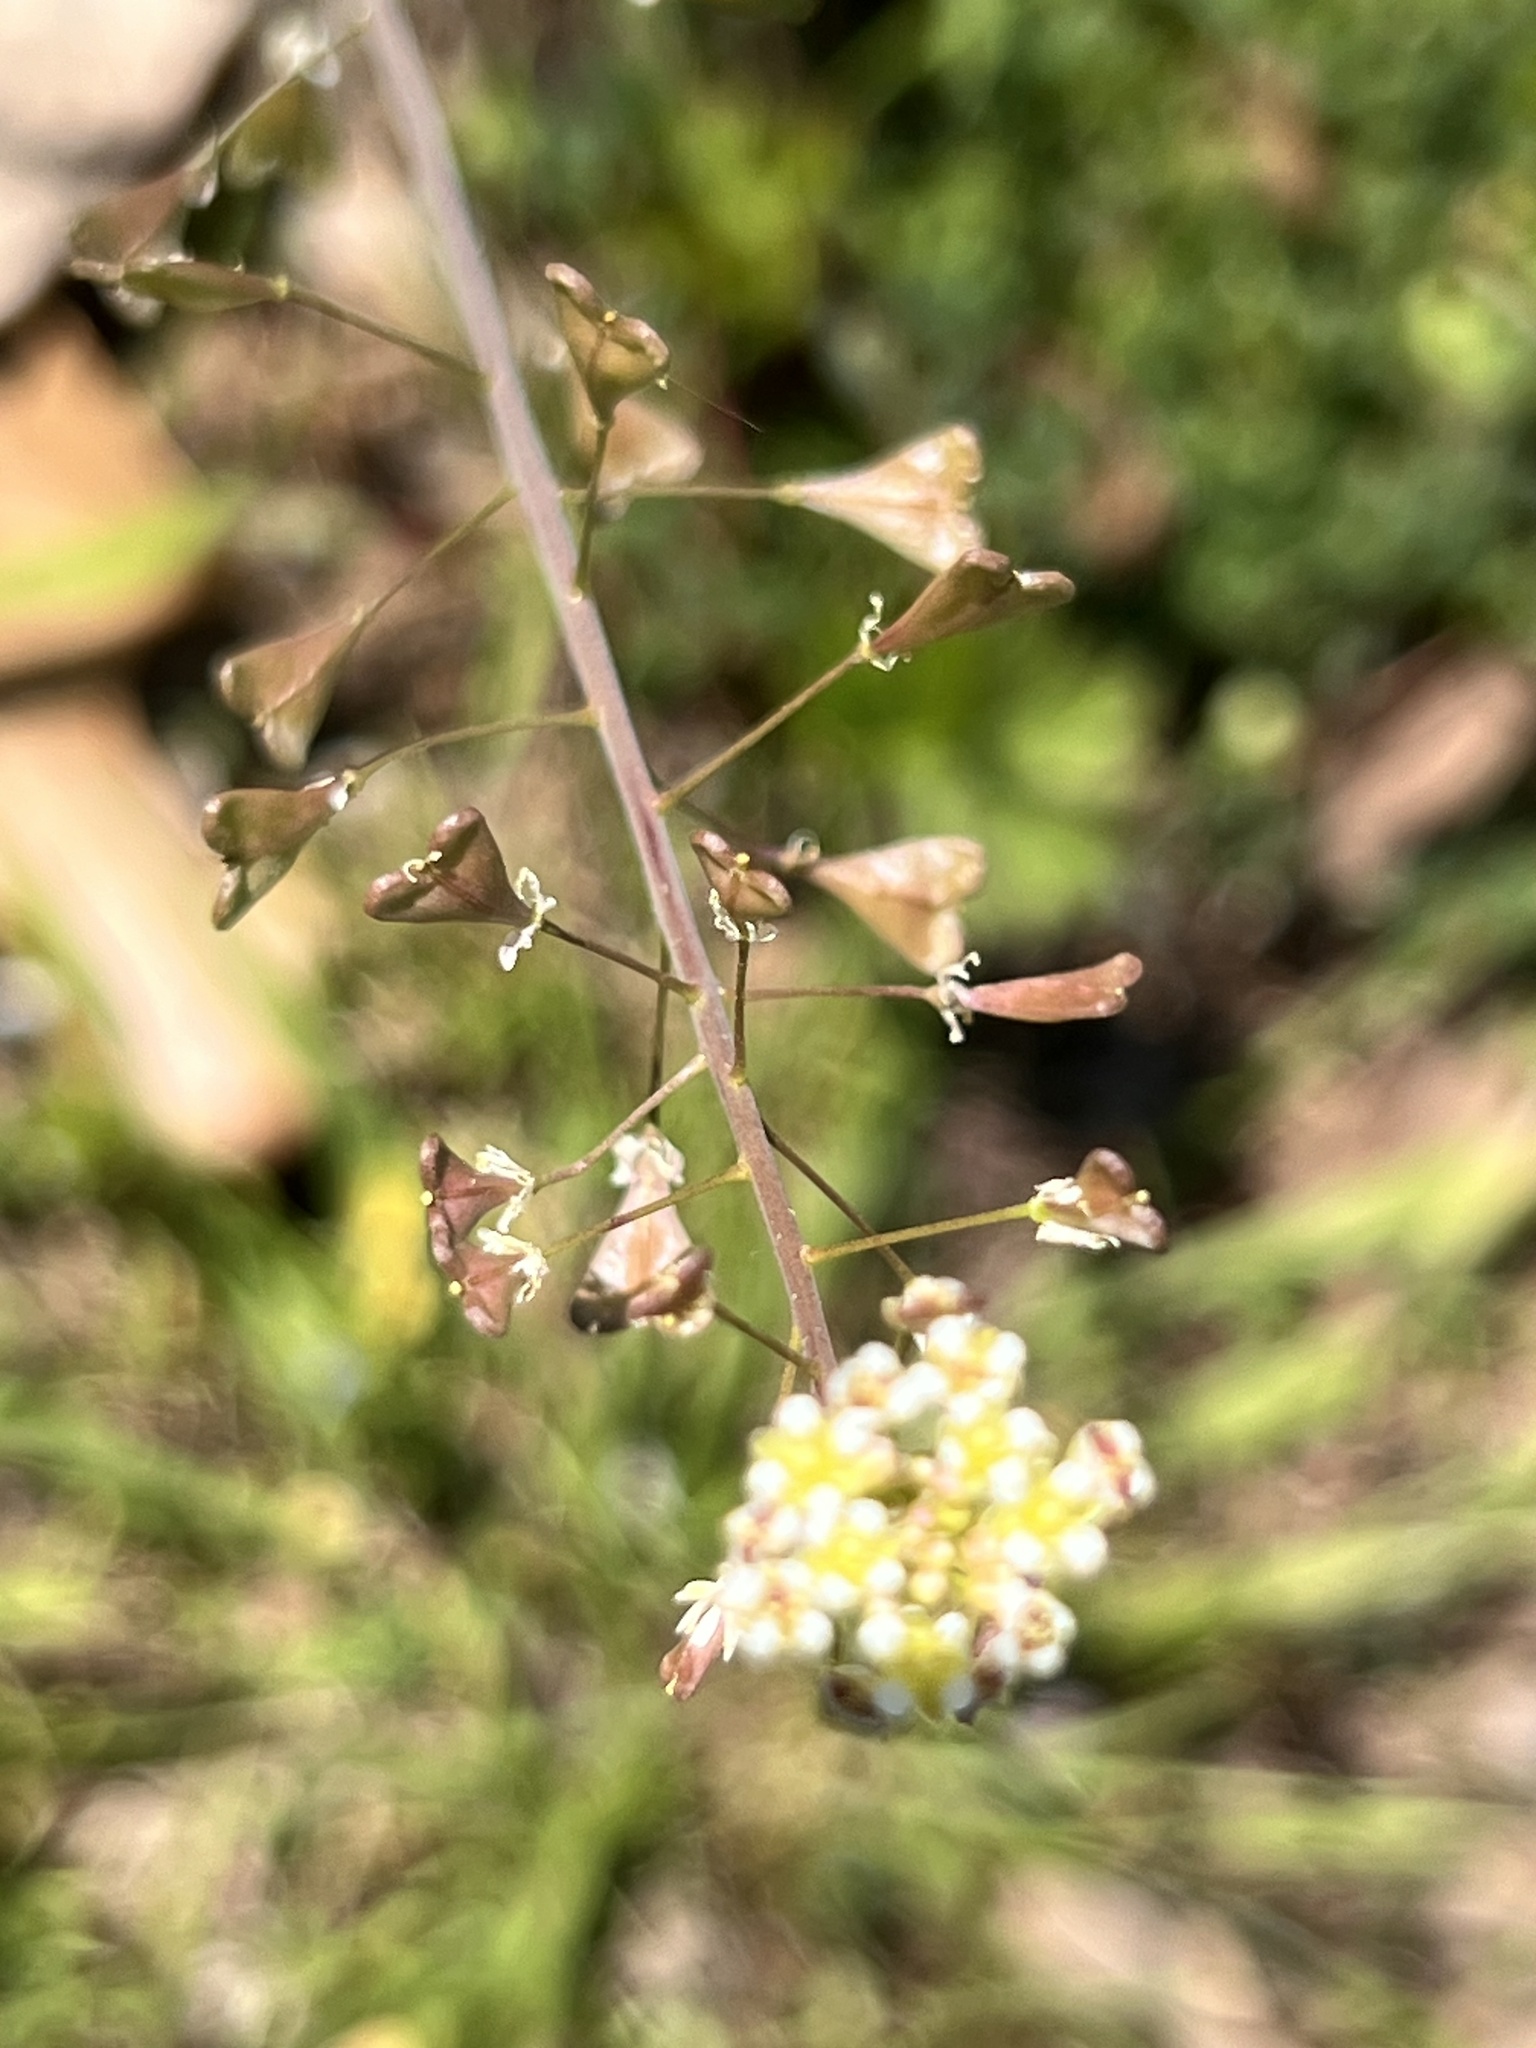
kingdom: Plantae
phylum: Tracheophyta
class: Magnoliopsida
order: Brassicales
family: Brassicaceae
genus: Capsella
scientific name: Capsella bursa-pastoris
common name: Shepherd's purse
